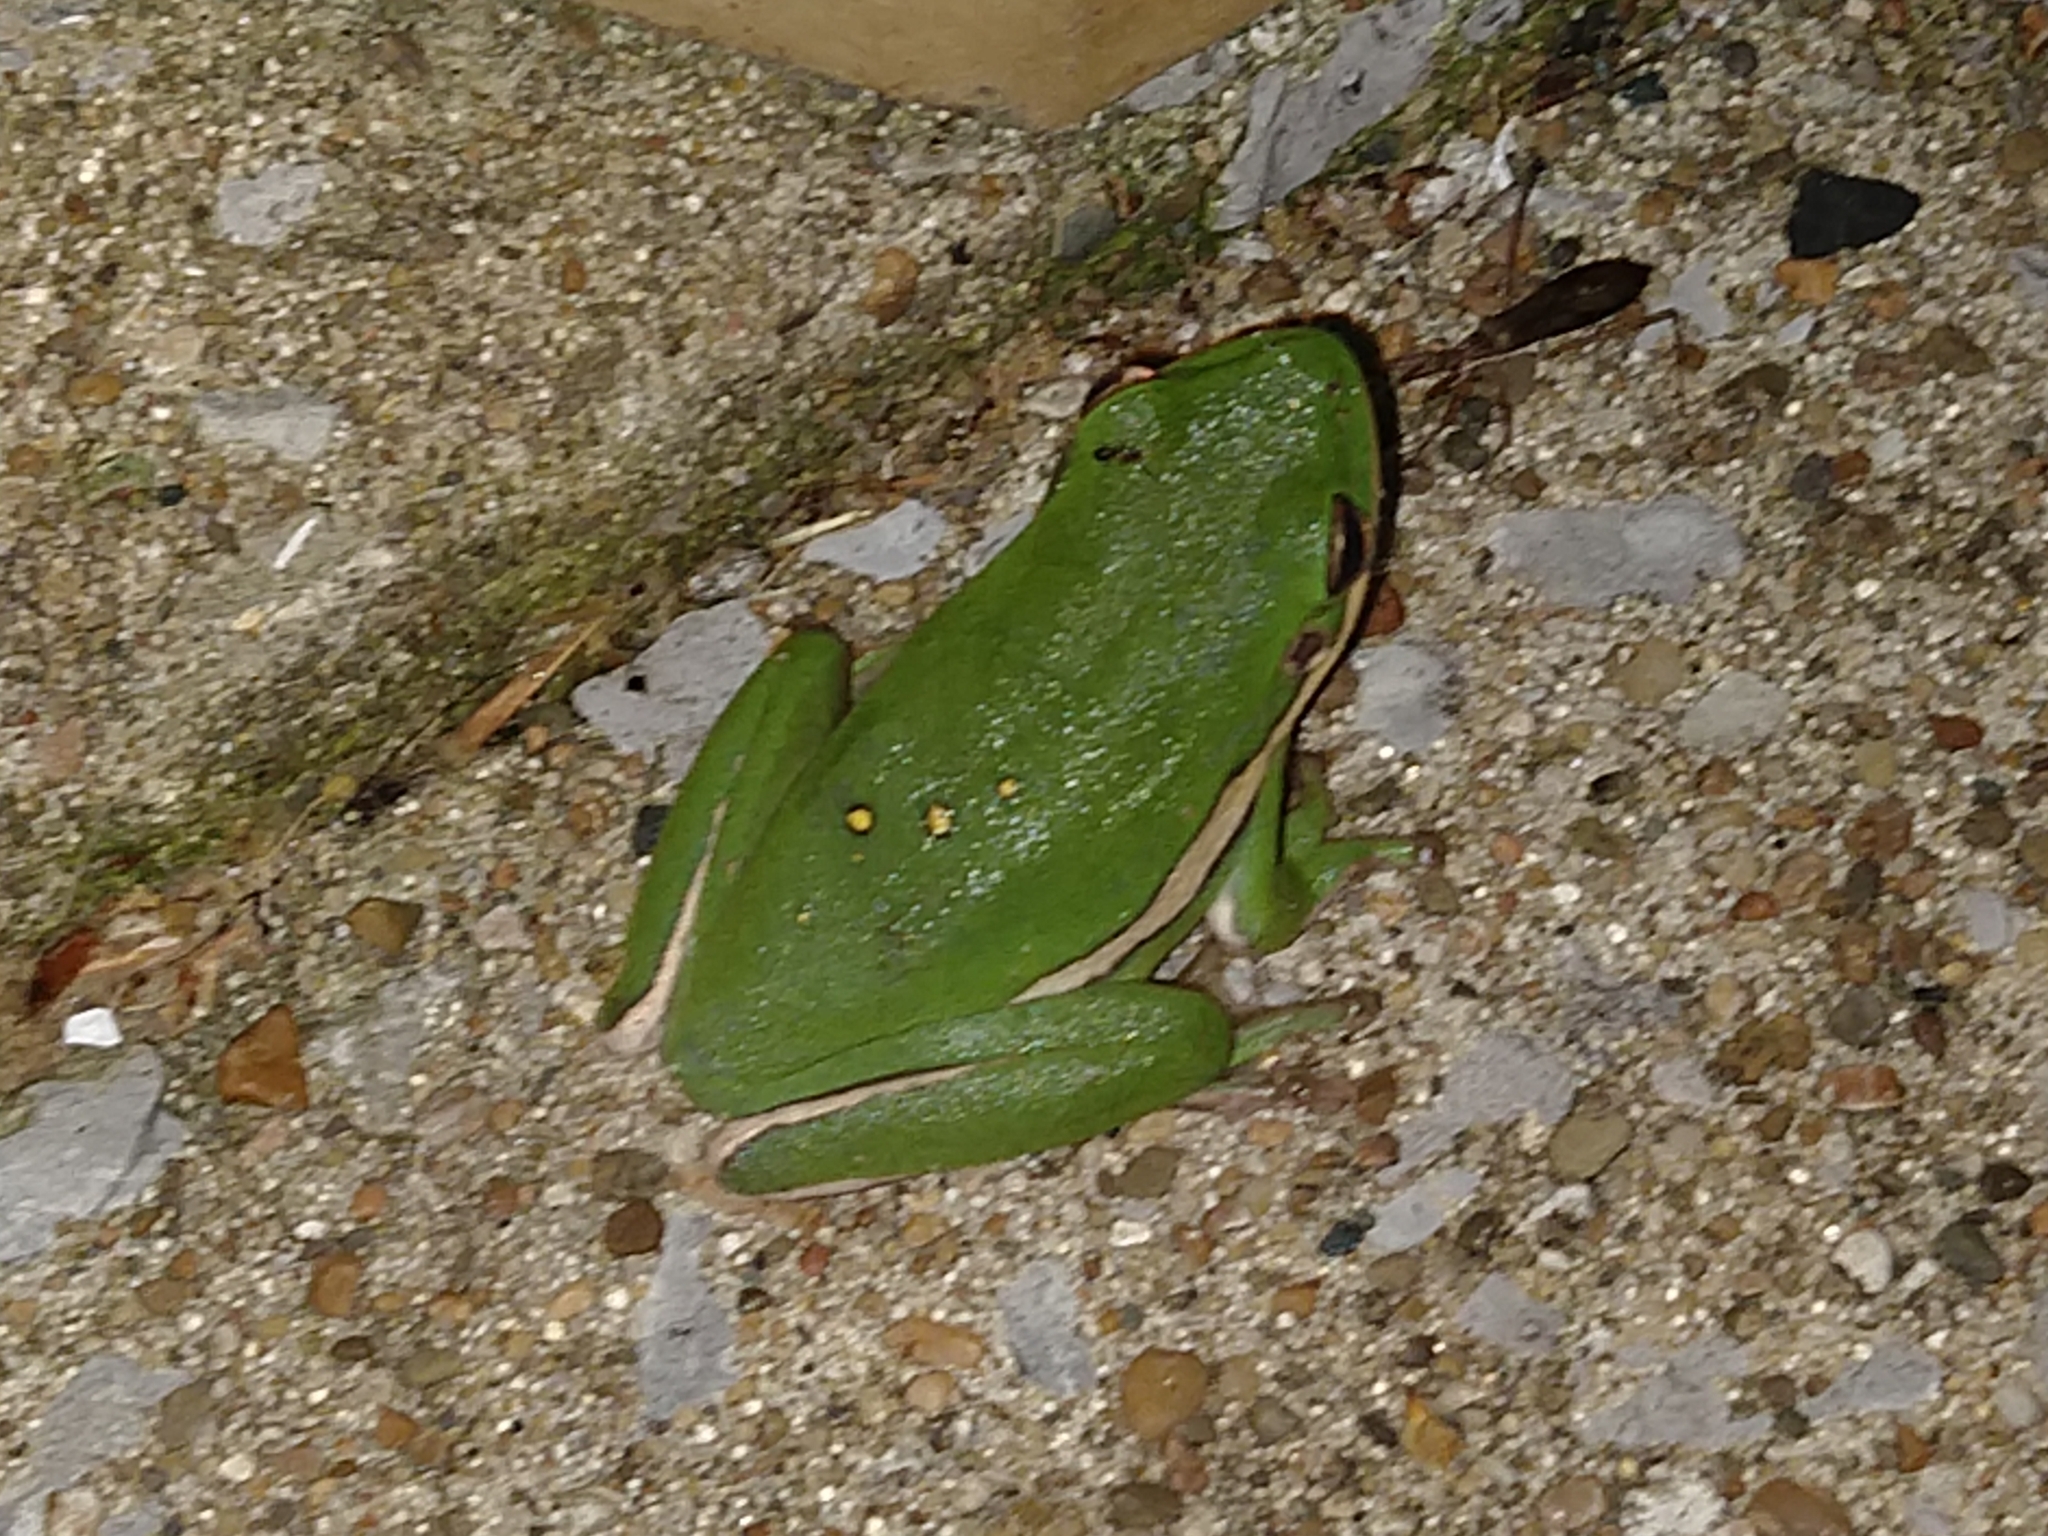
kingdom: Animalia
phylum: Chordata
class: Amphibia
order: Anura
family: Hylidae
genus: Dryophytes
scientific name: Dryophytes cinereus
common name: Green treefrog
